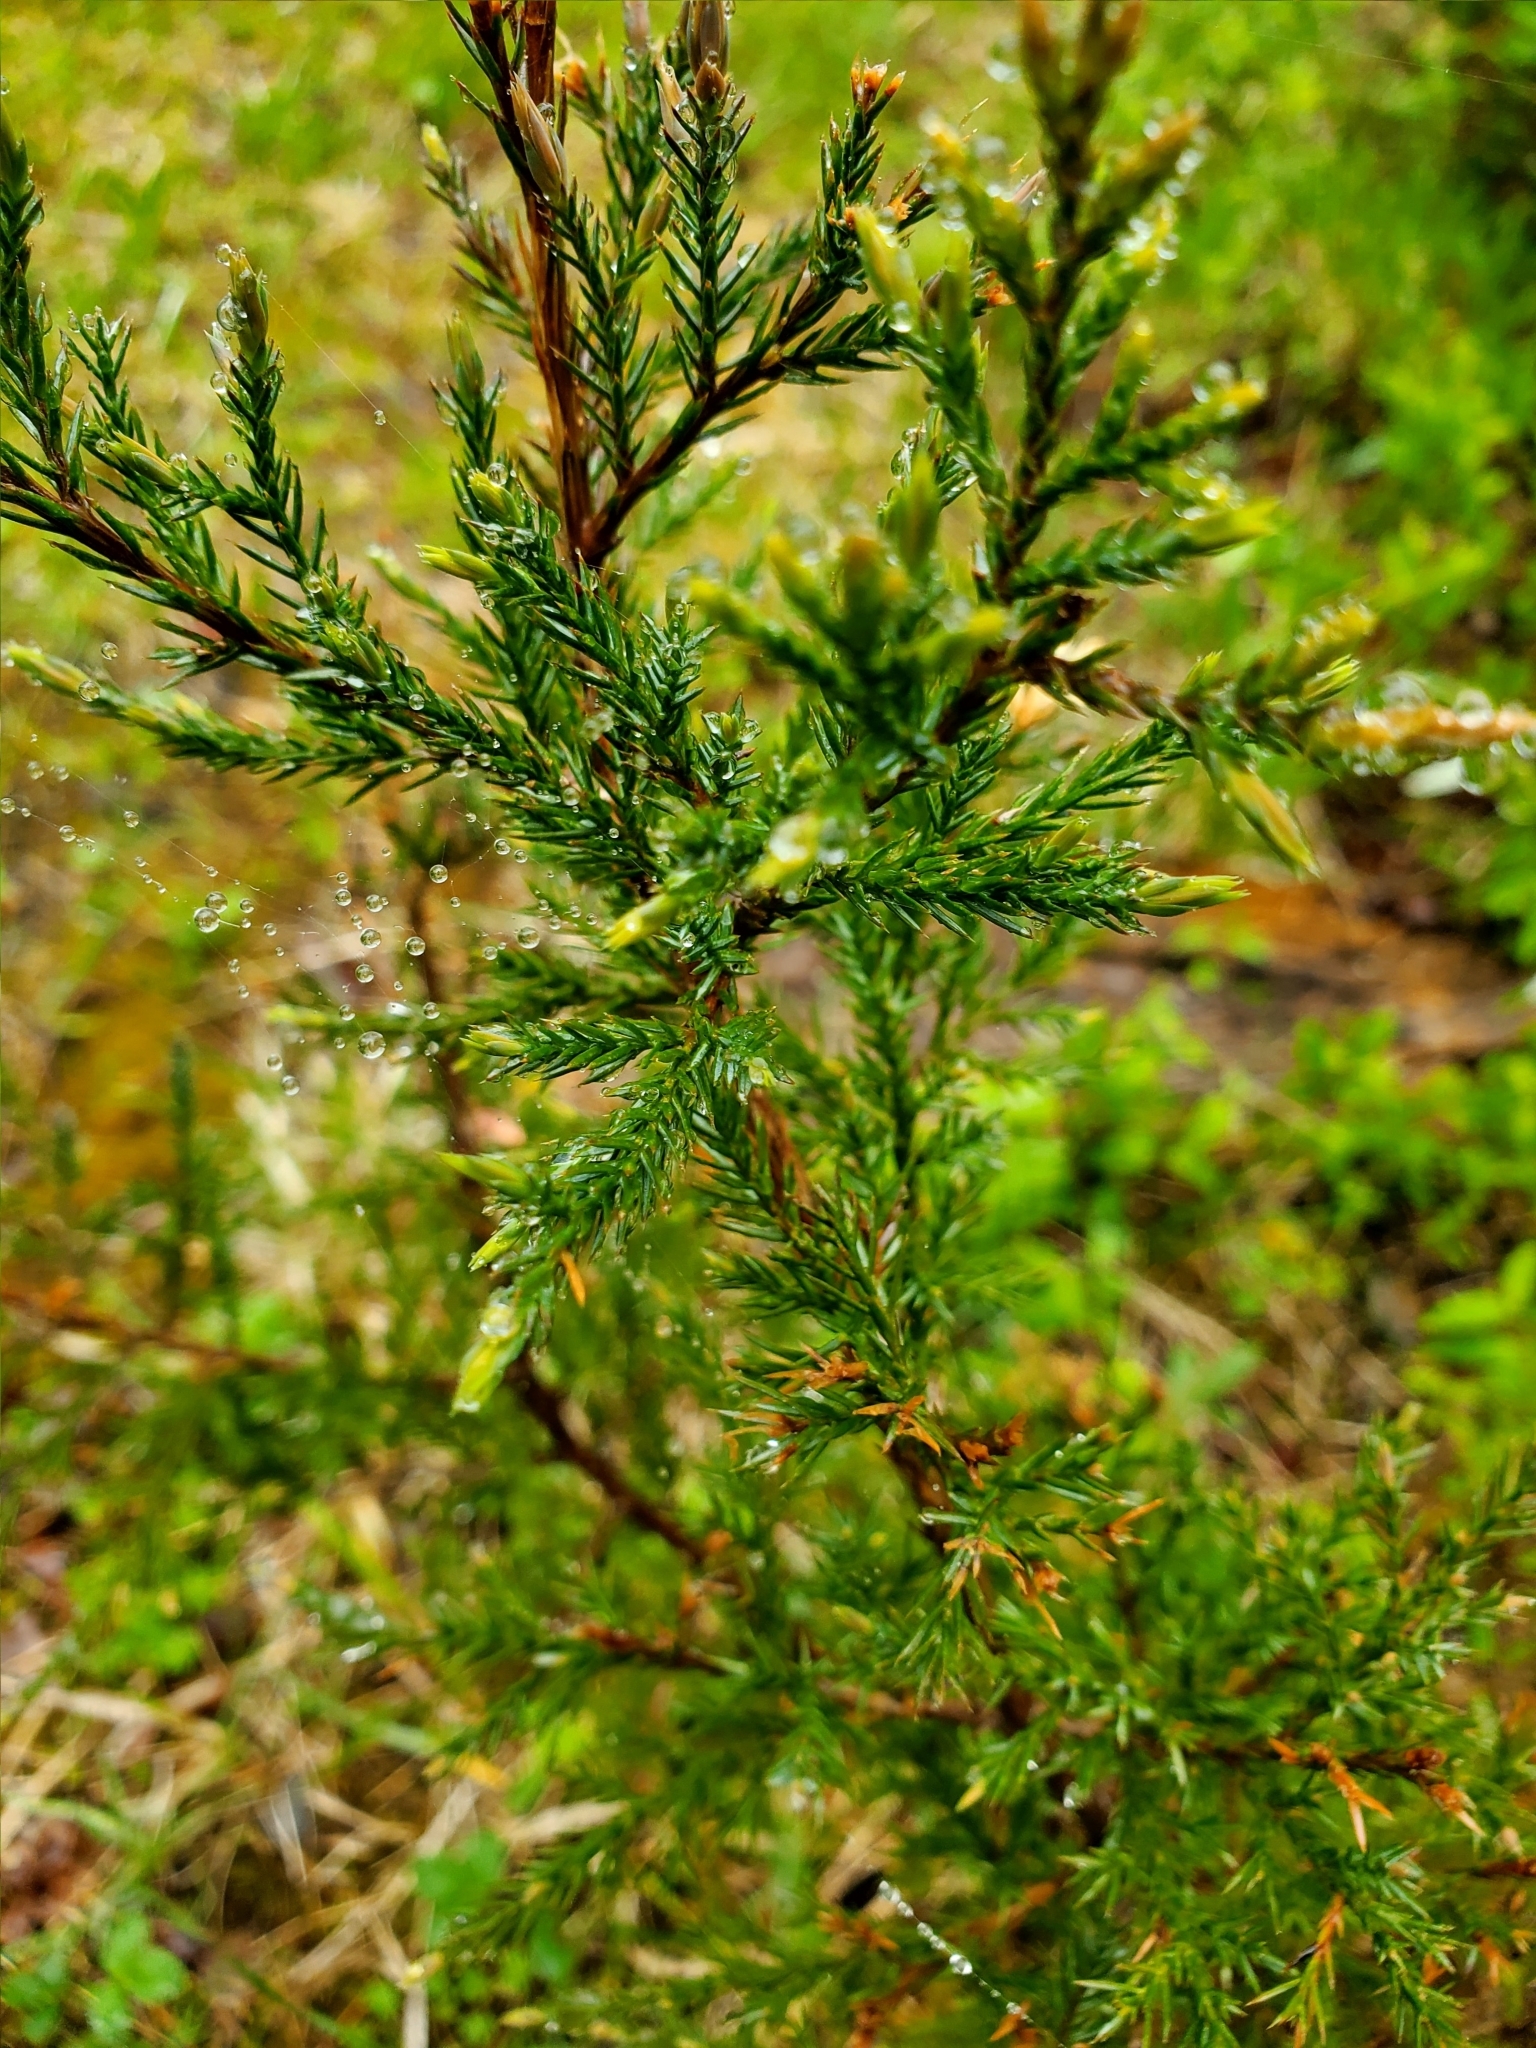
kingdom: Plantae
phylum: Tracheophyta
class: Pinopsida
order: Pinales
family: Cupressaceae
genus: Juniperus
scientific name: Juniperus virginiana
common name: Red juniper
